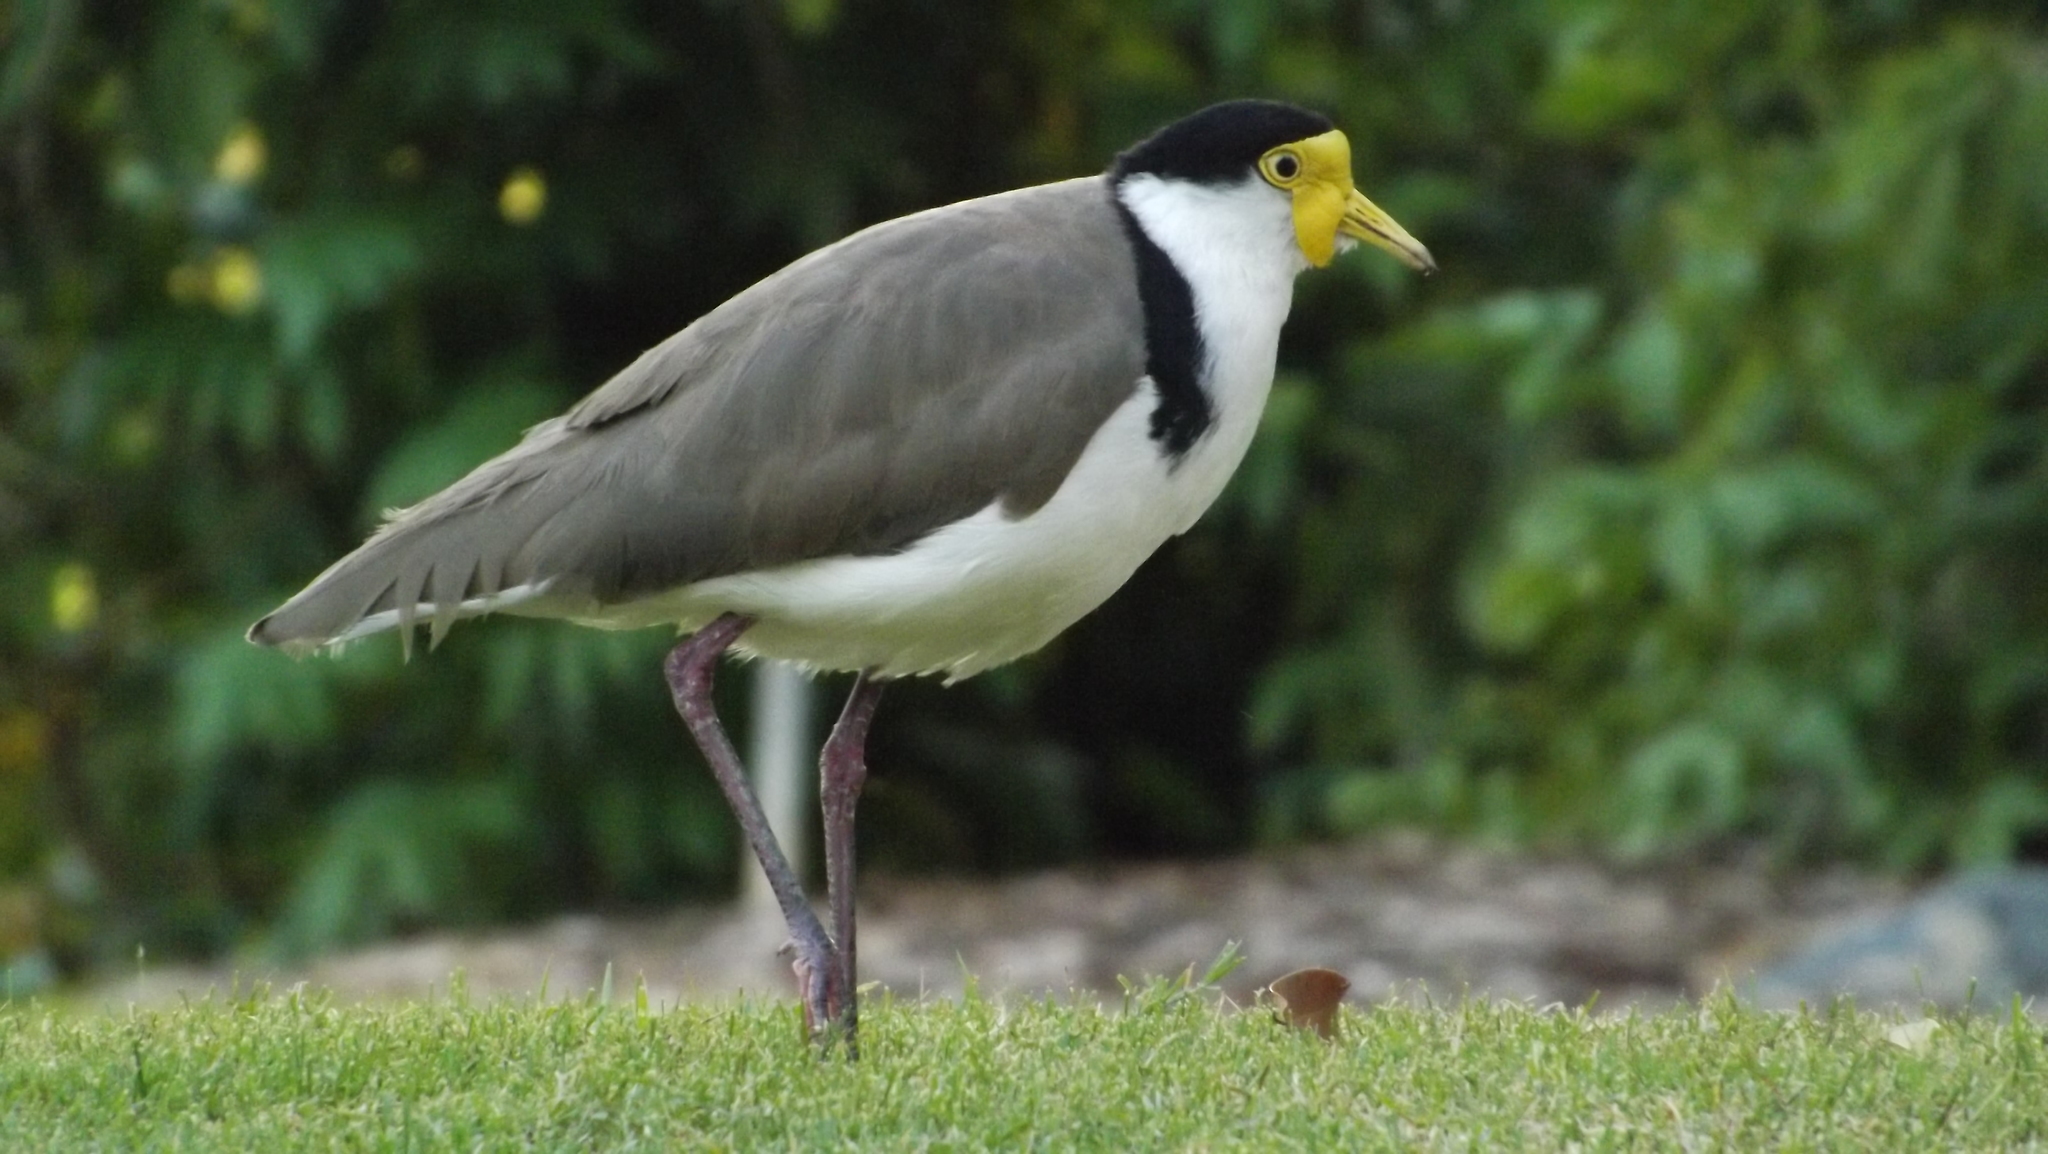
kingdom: Animalia
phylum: Chordata
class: Aves
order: Charadriiformes
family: Charadriidae
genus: Vanellus
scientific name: Vanellus miles
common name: Masked lapwing
